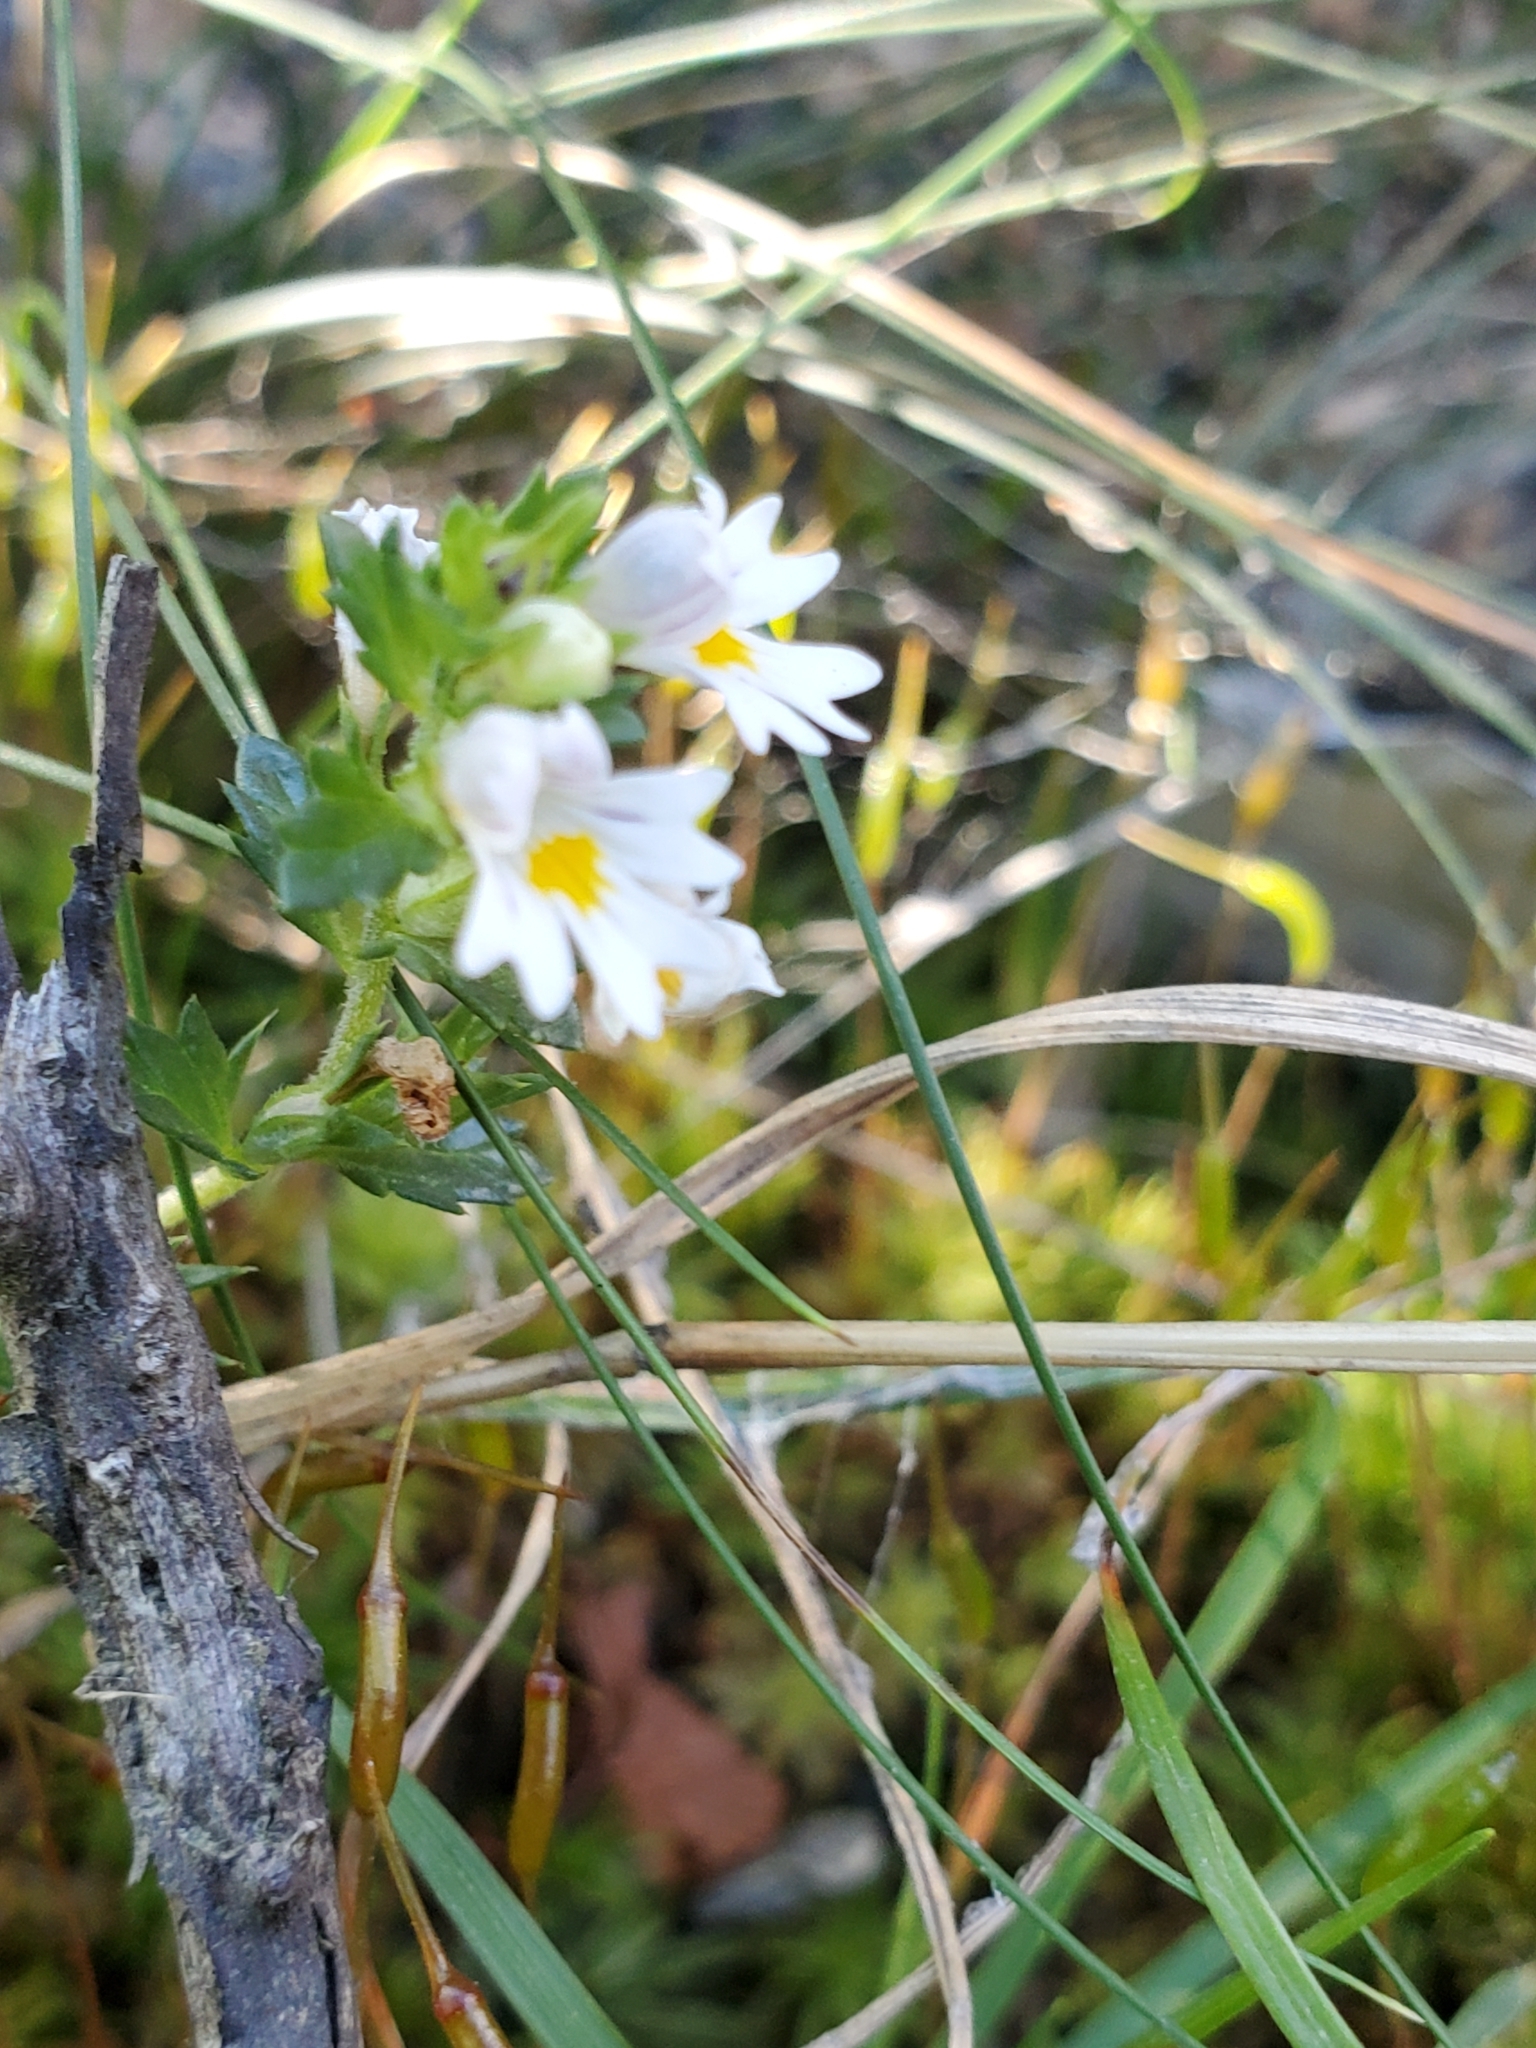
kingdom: Plantae
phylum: Tracheophyta
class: Magnoliopsida
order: Lamiales
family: Orobanchaceae
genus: Euphrasia
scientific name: Euphrasia nemorosa
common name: Common eyebright
